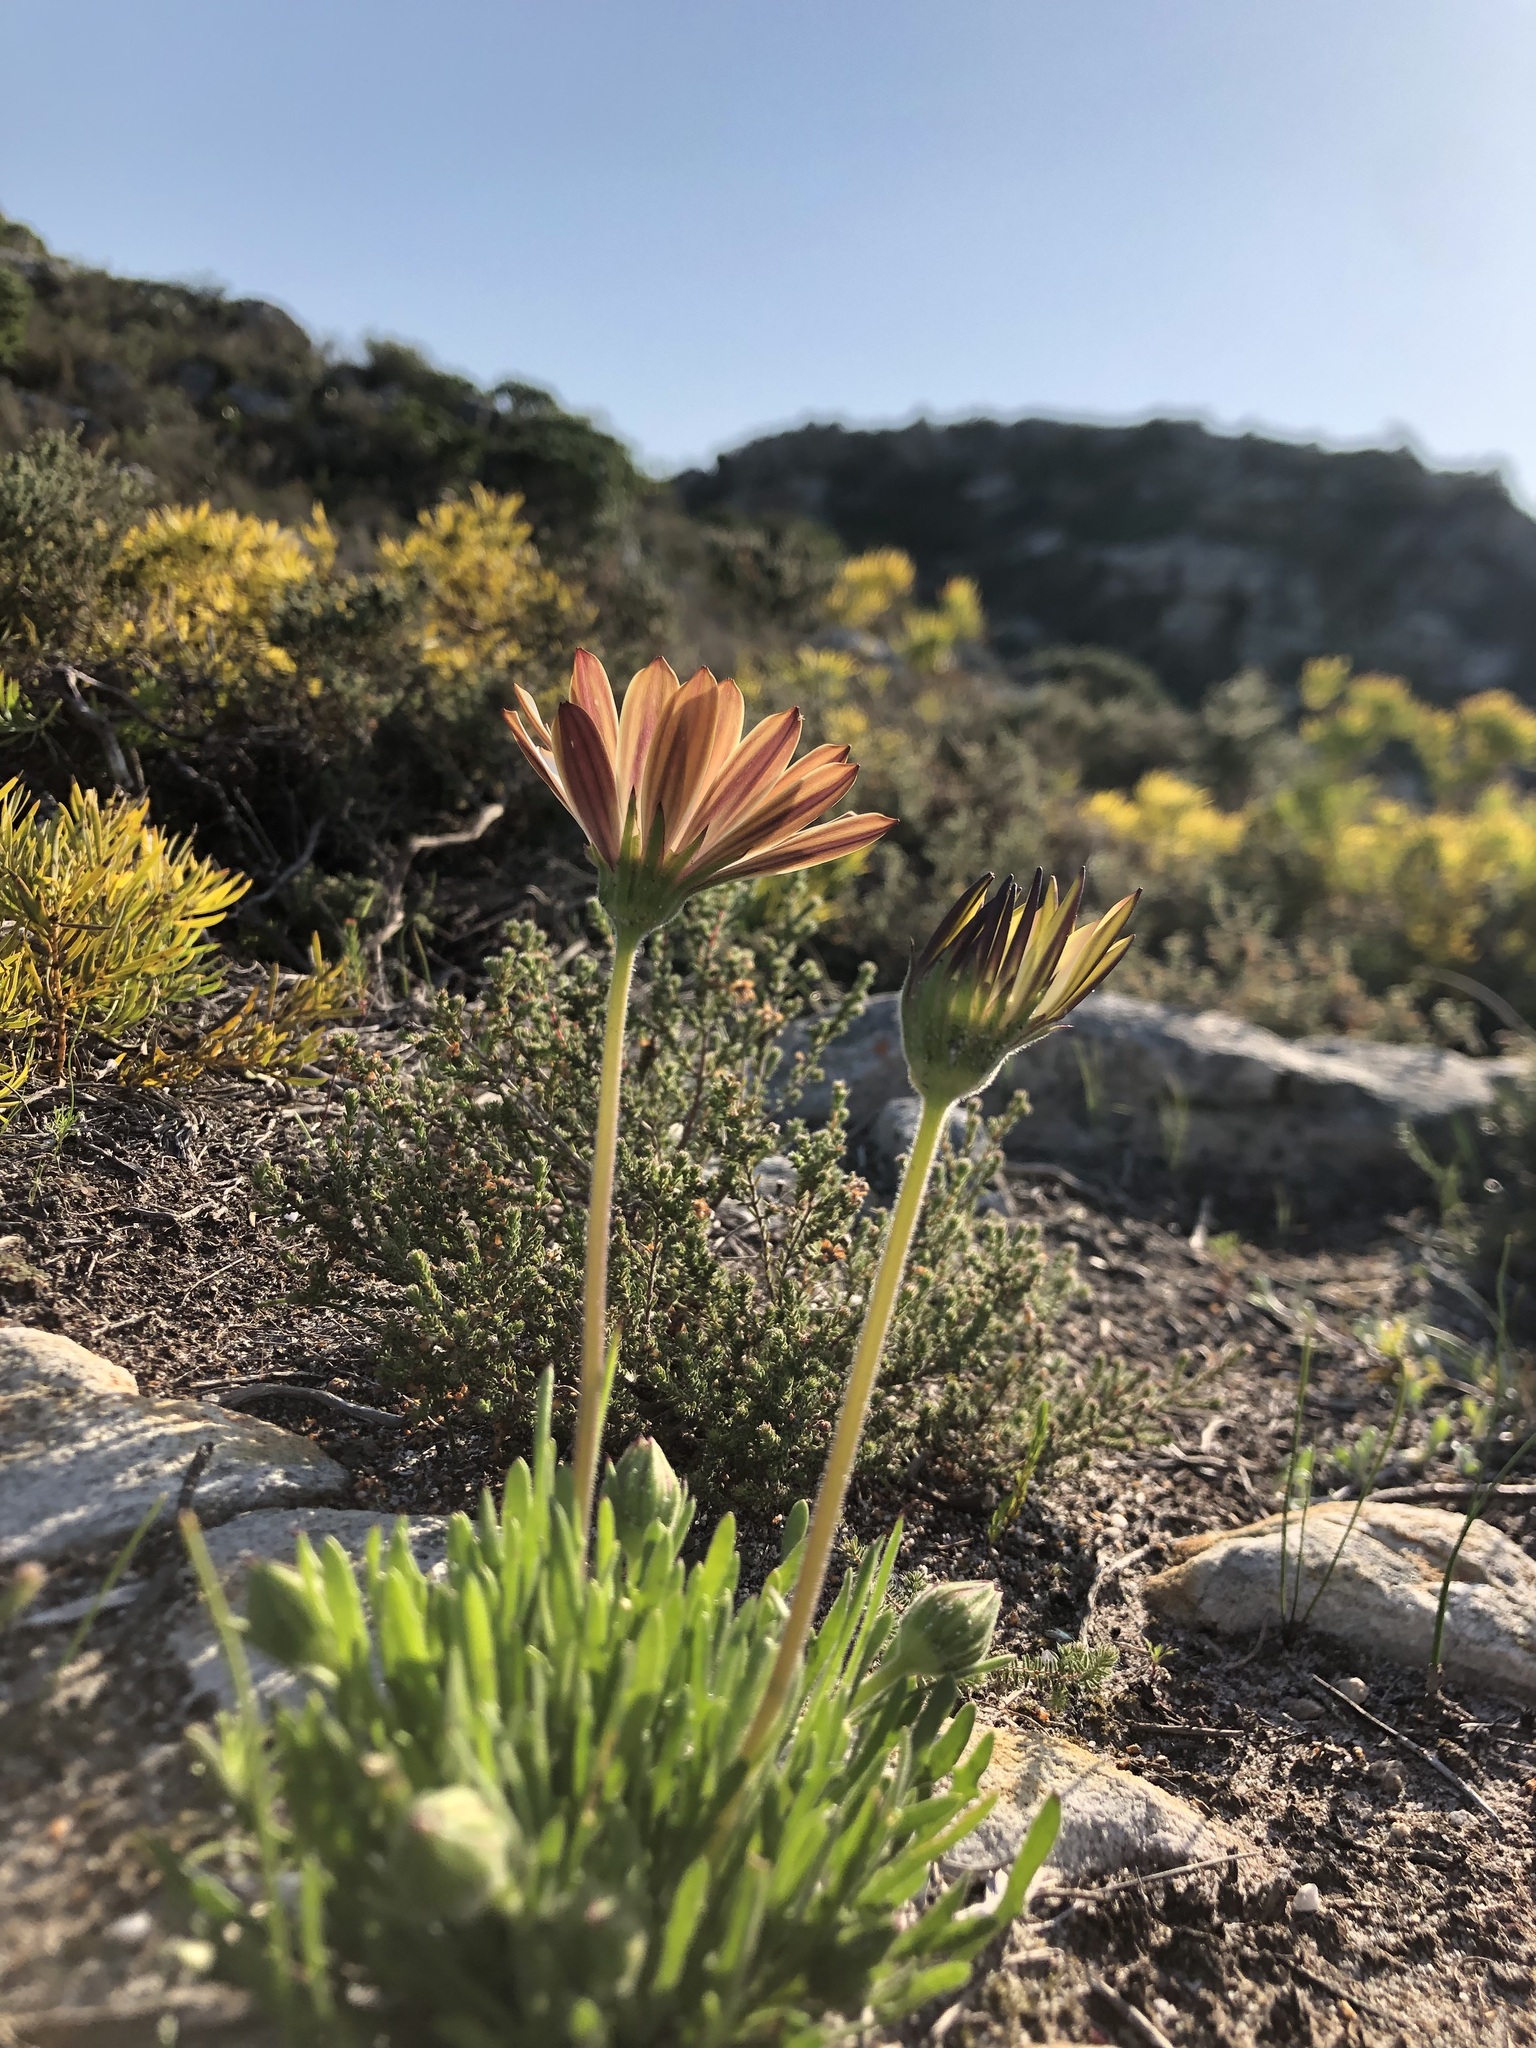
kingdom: Plantae
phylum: Tracheophyta
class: Magnoliopsida
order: Asterales
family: Asteraceae
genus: Dimorphotheca
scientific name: Dimorphotheca nudicaulis
